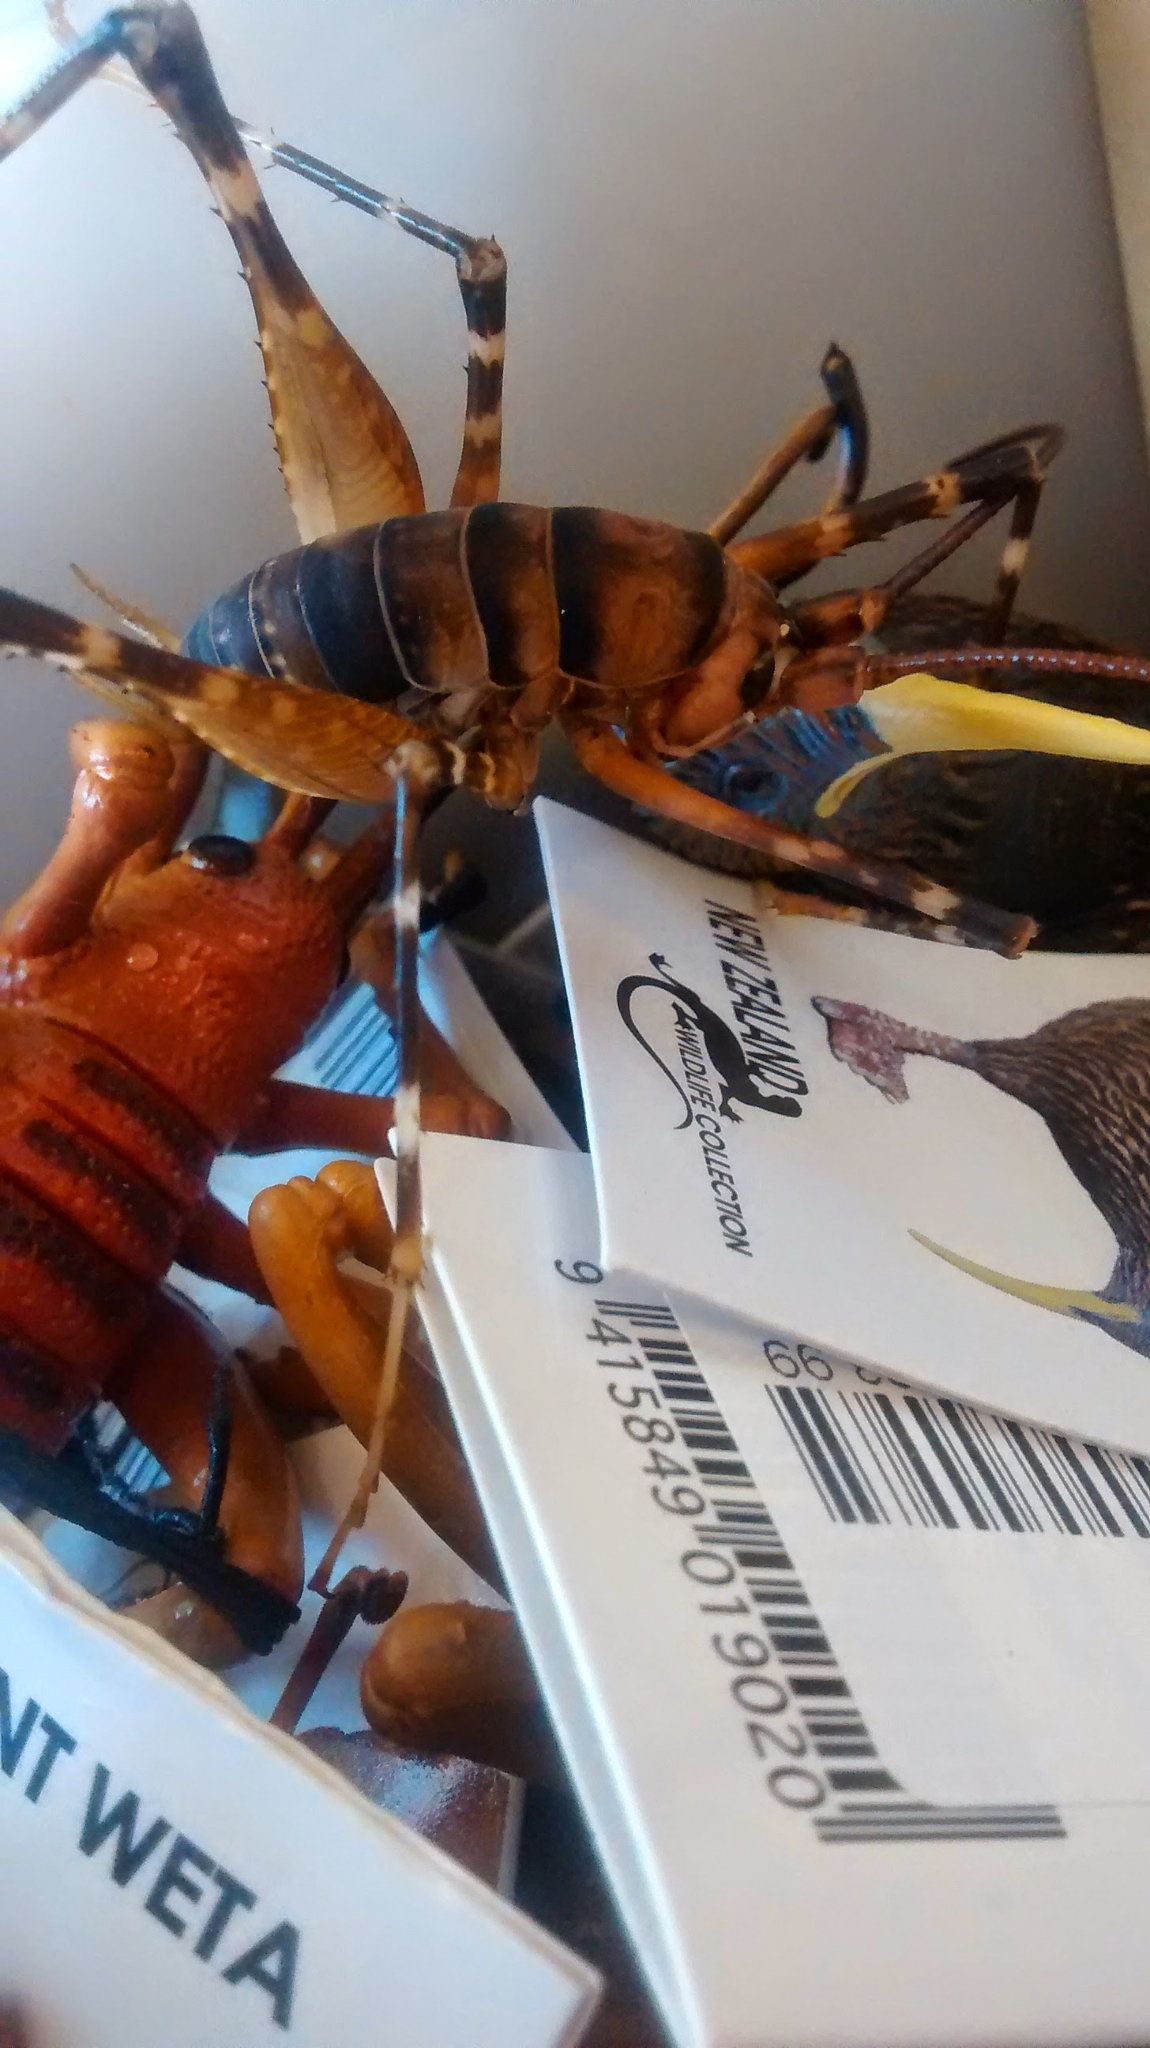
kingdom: Animalia
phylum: Arthropoda
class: Insecta
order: Orthoptera
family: Rhaphidophoridae
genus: Pachyrhamma
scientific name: Pachyrhamma edwardsii
